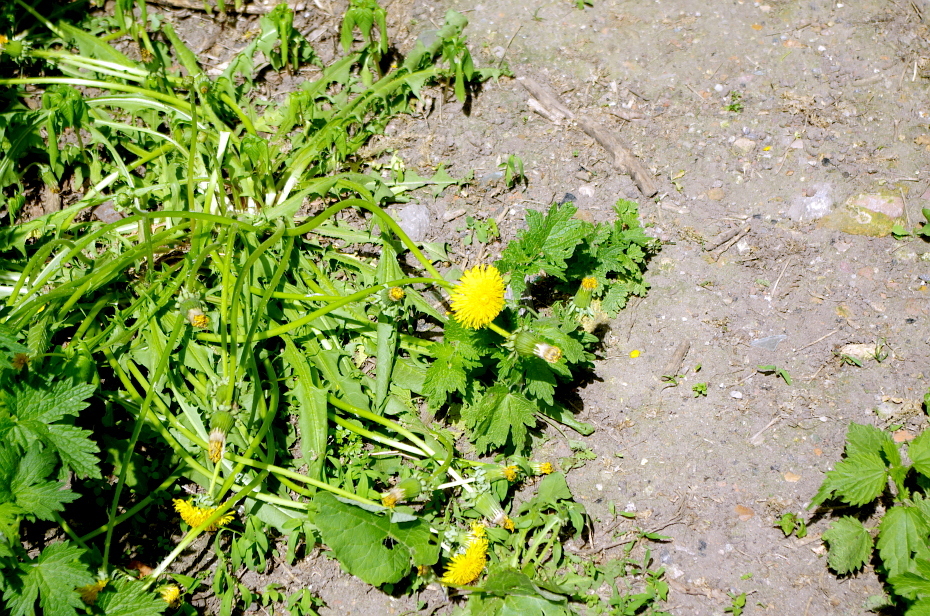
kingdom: Plantae
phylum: Tracheophyta
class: Magnoliopsida
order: Asterales
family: Asteraceae
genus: Taraxacum
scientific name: Taraxacum officinale
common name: Common dandelion
